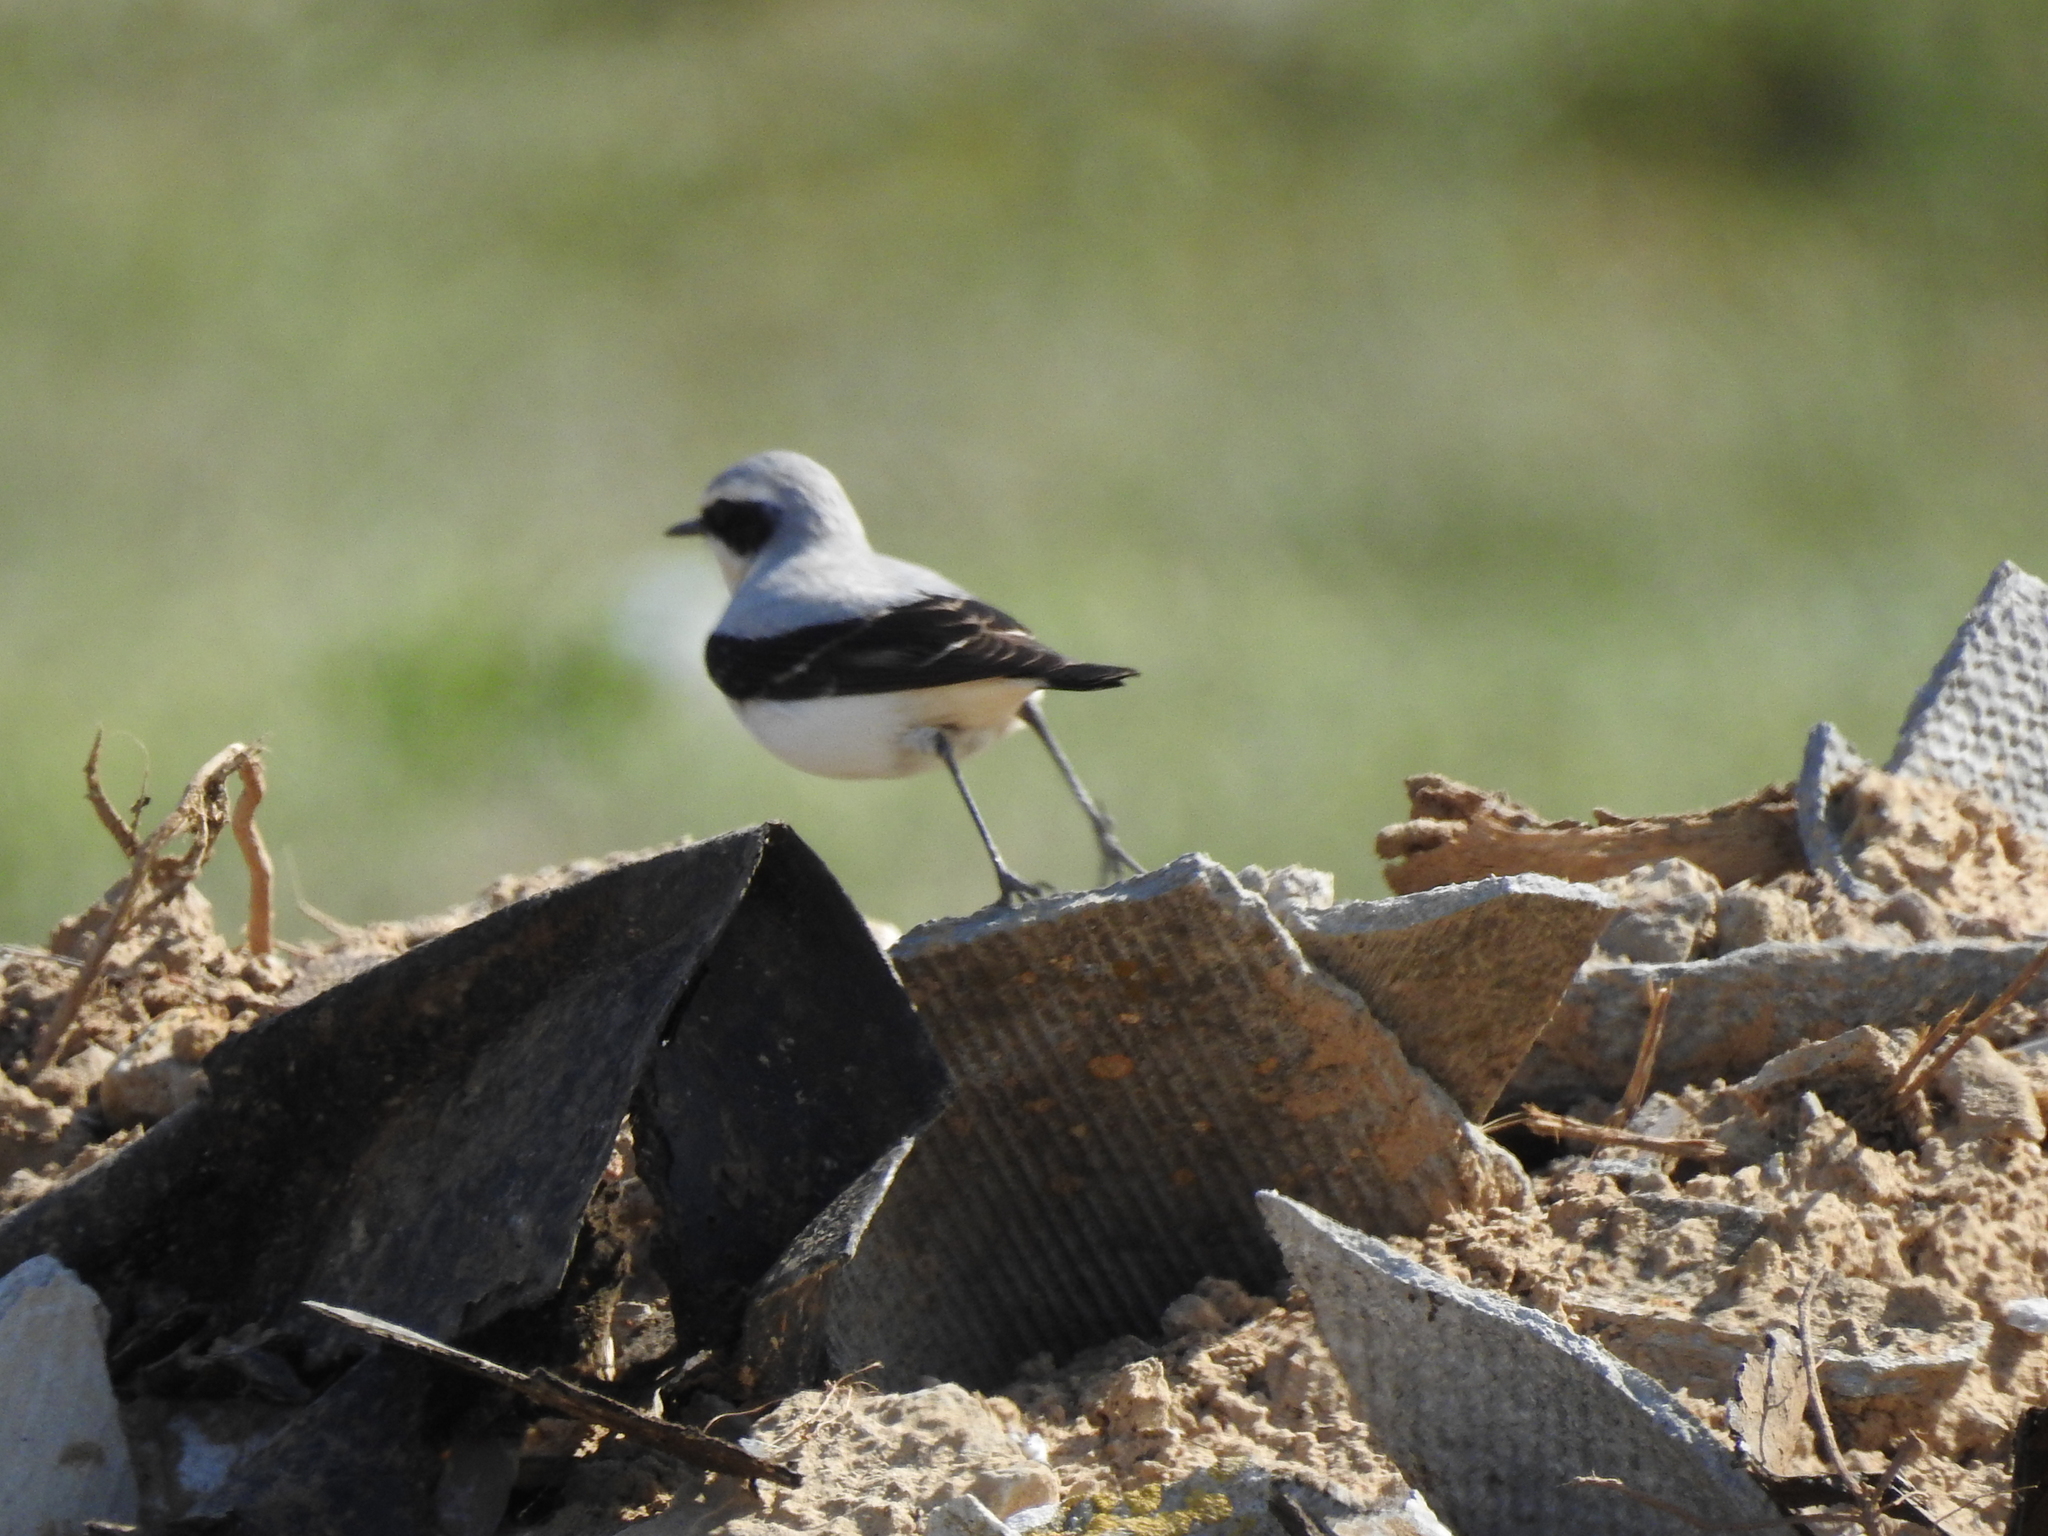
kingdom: Animalia
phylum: Chordata
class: Aves
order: Passeriformes
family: Muscicapidae
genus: Oenanthe
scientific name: Oenanthe oenanthe
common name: Northern wheatear
